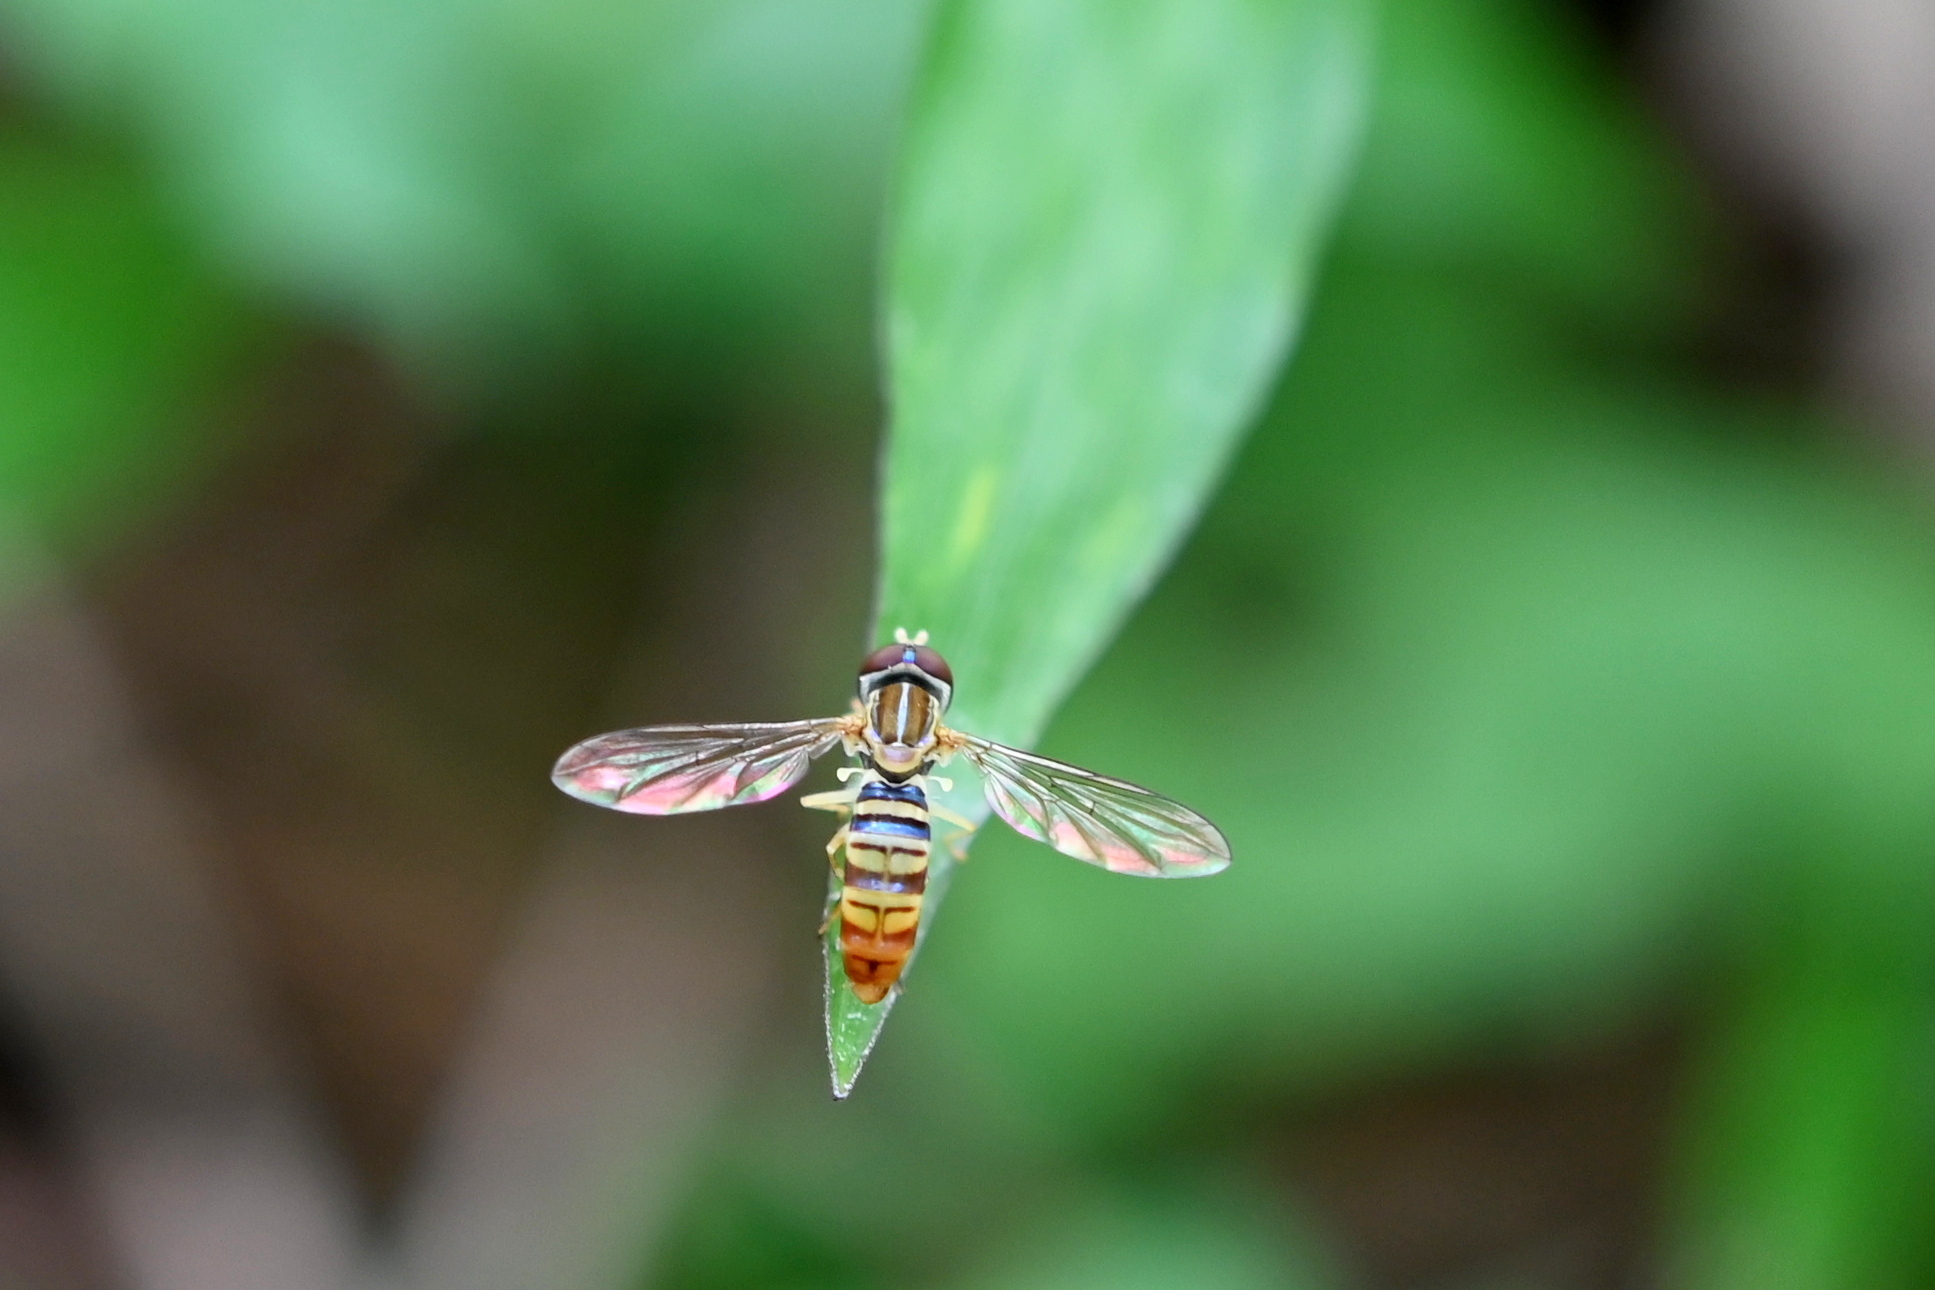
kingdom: Animalia
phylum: Arthropoda
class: Insecta
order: Diptera
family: Syrphidae
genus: Toxomerus
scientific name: Toxomerus politus
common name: Maize calligrapher
